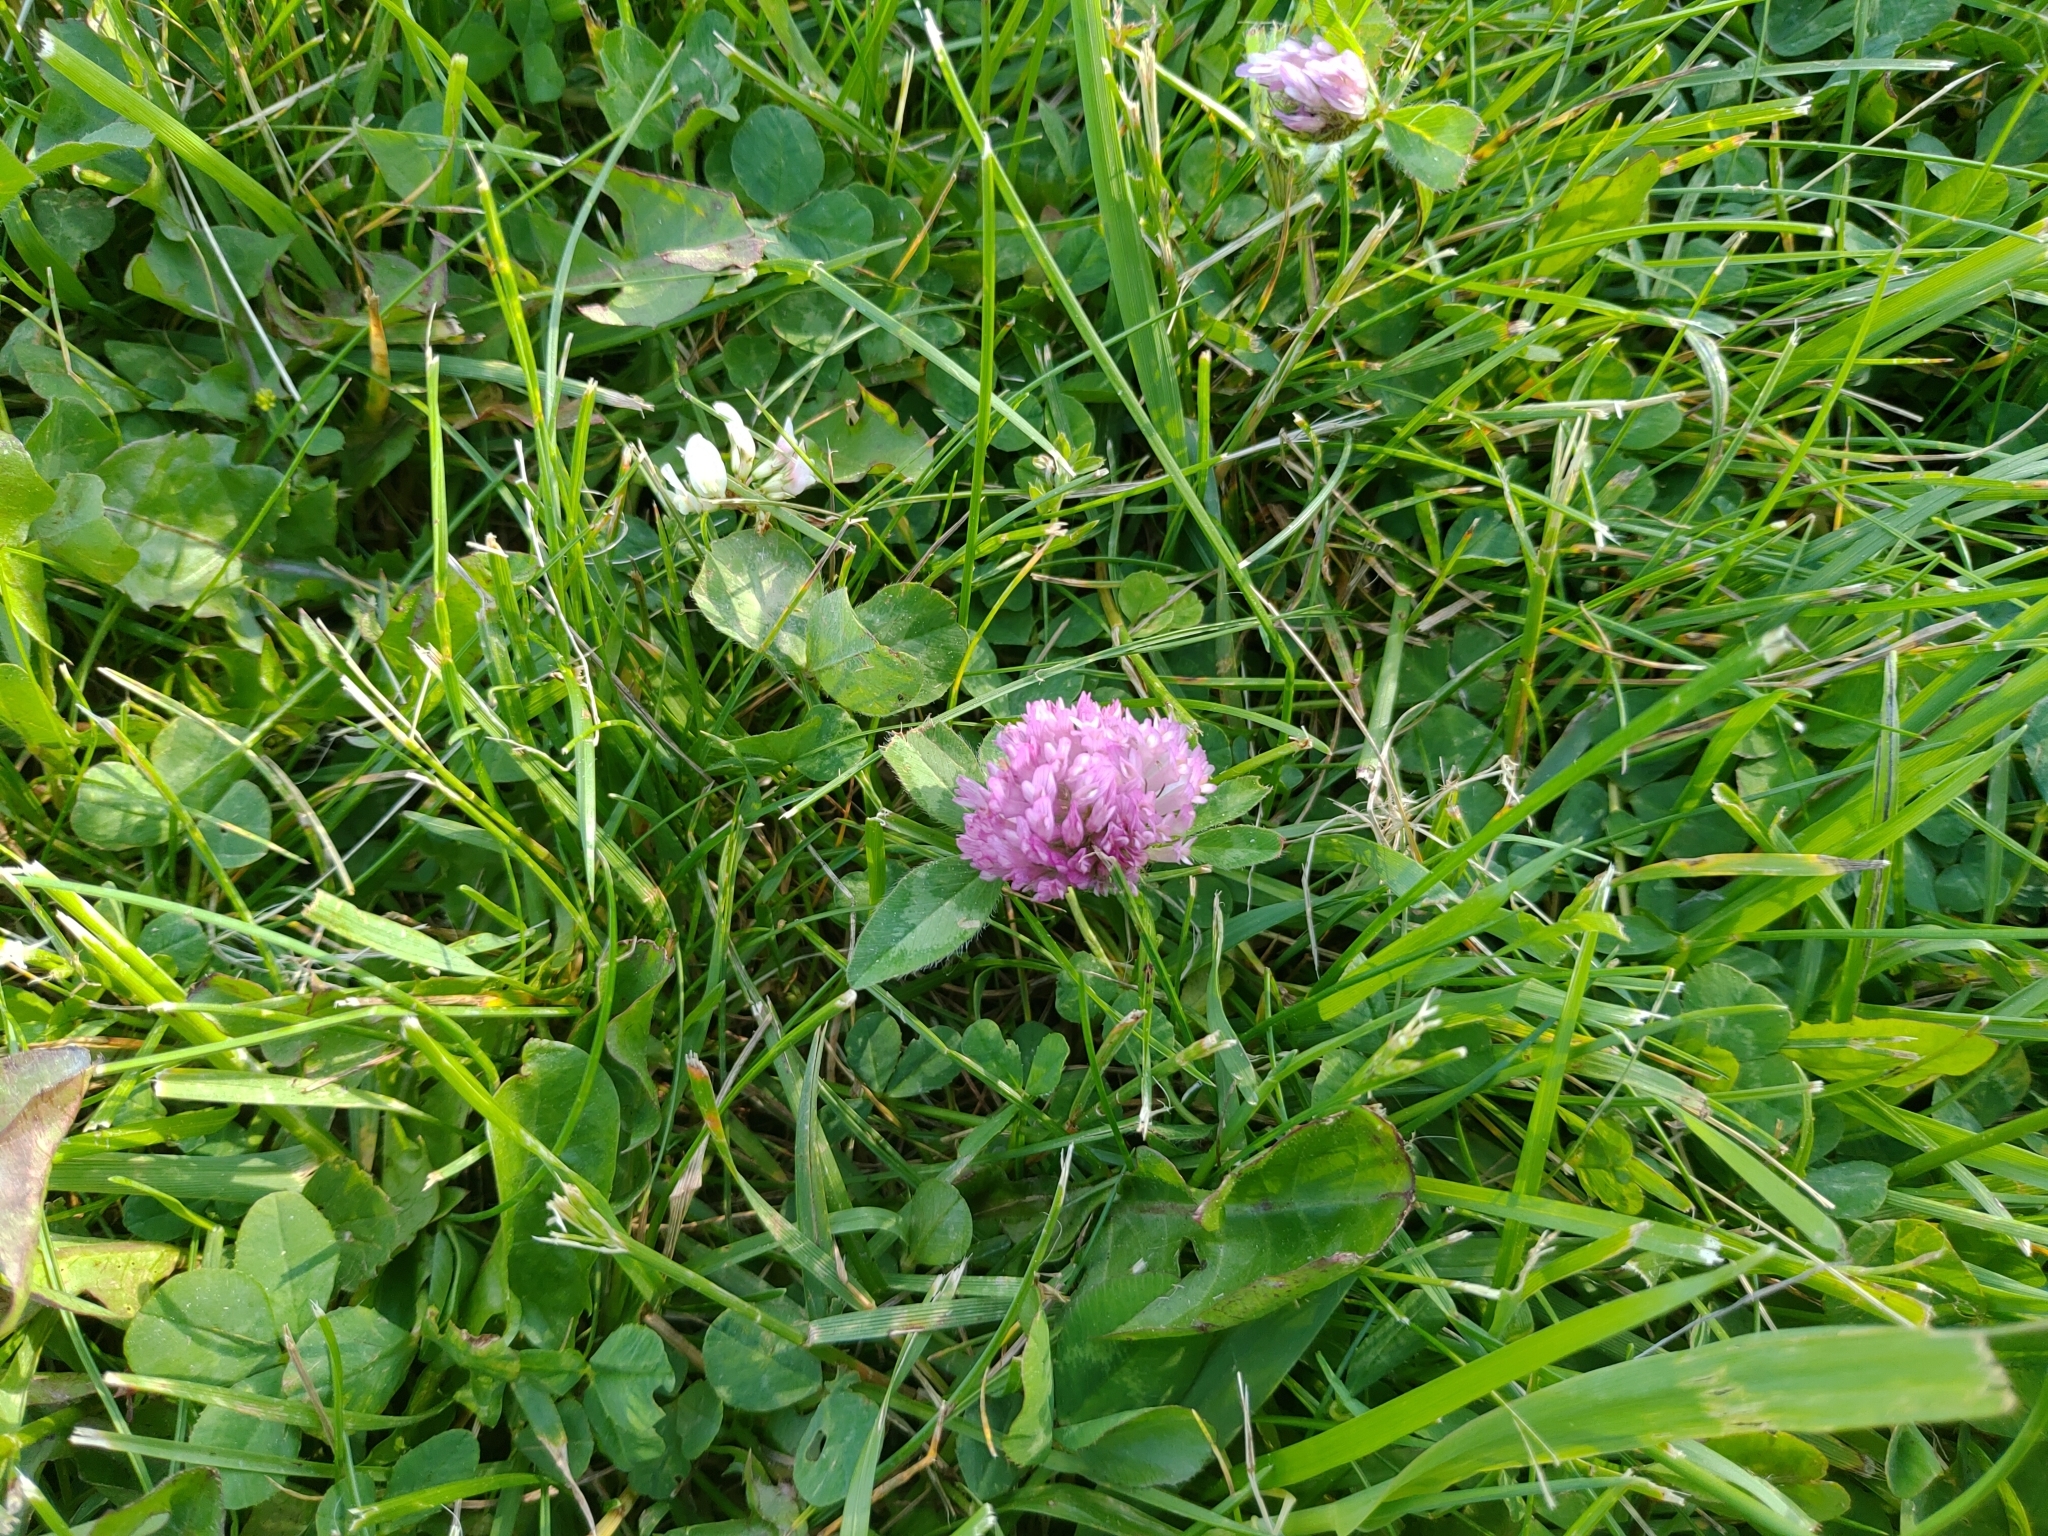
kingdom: Plantae
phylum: Tracheophyta
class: Magnoliopsida
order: Fabales
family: Fabaceae
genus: Trifolium
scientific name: Trifolium pratense
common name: Red clover
